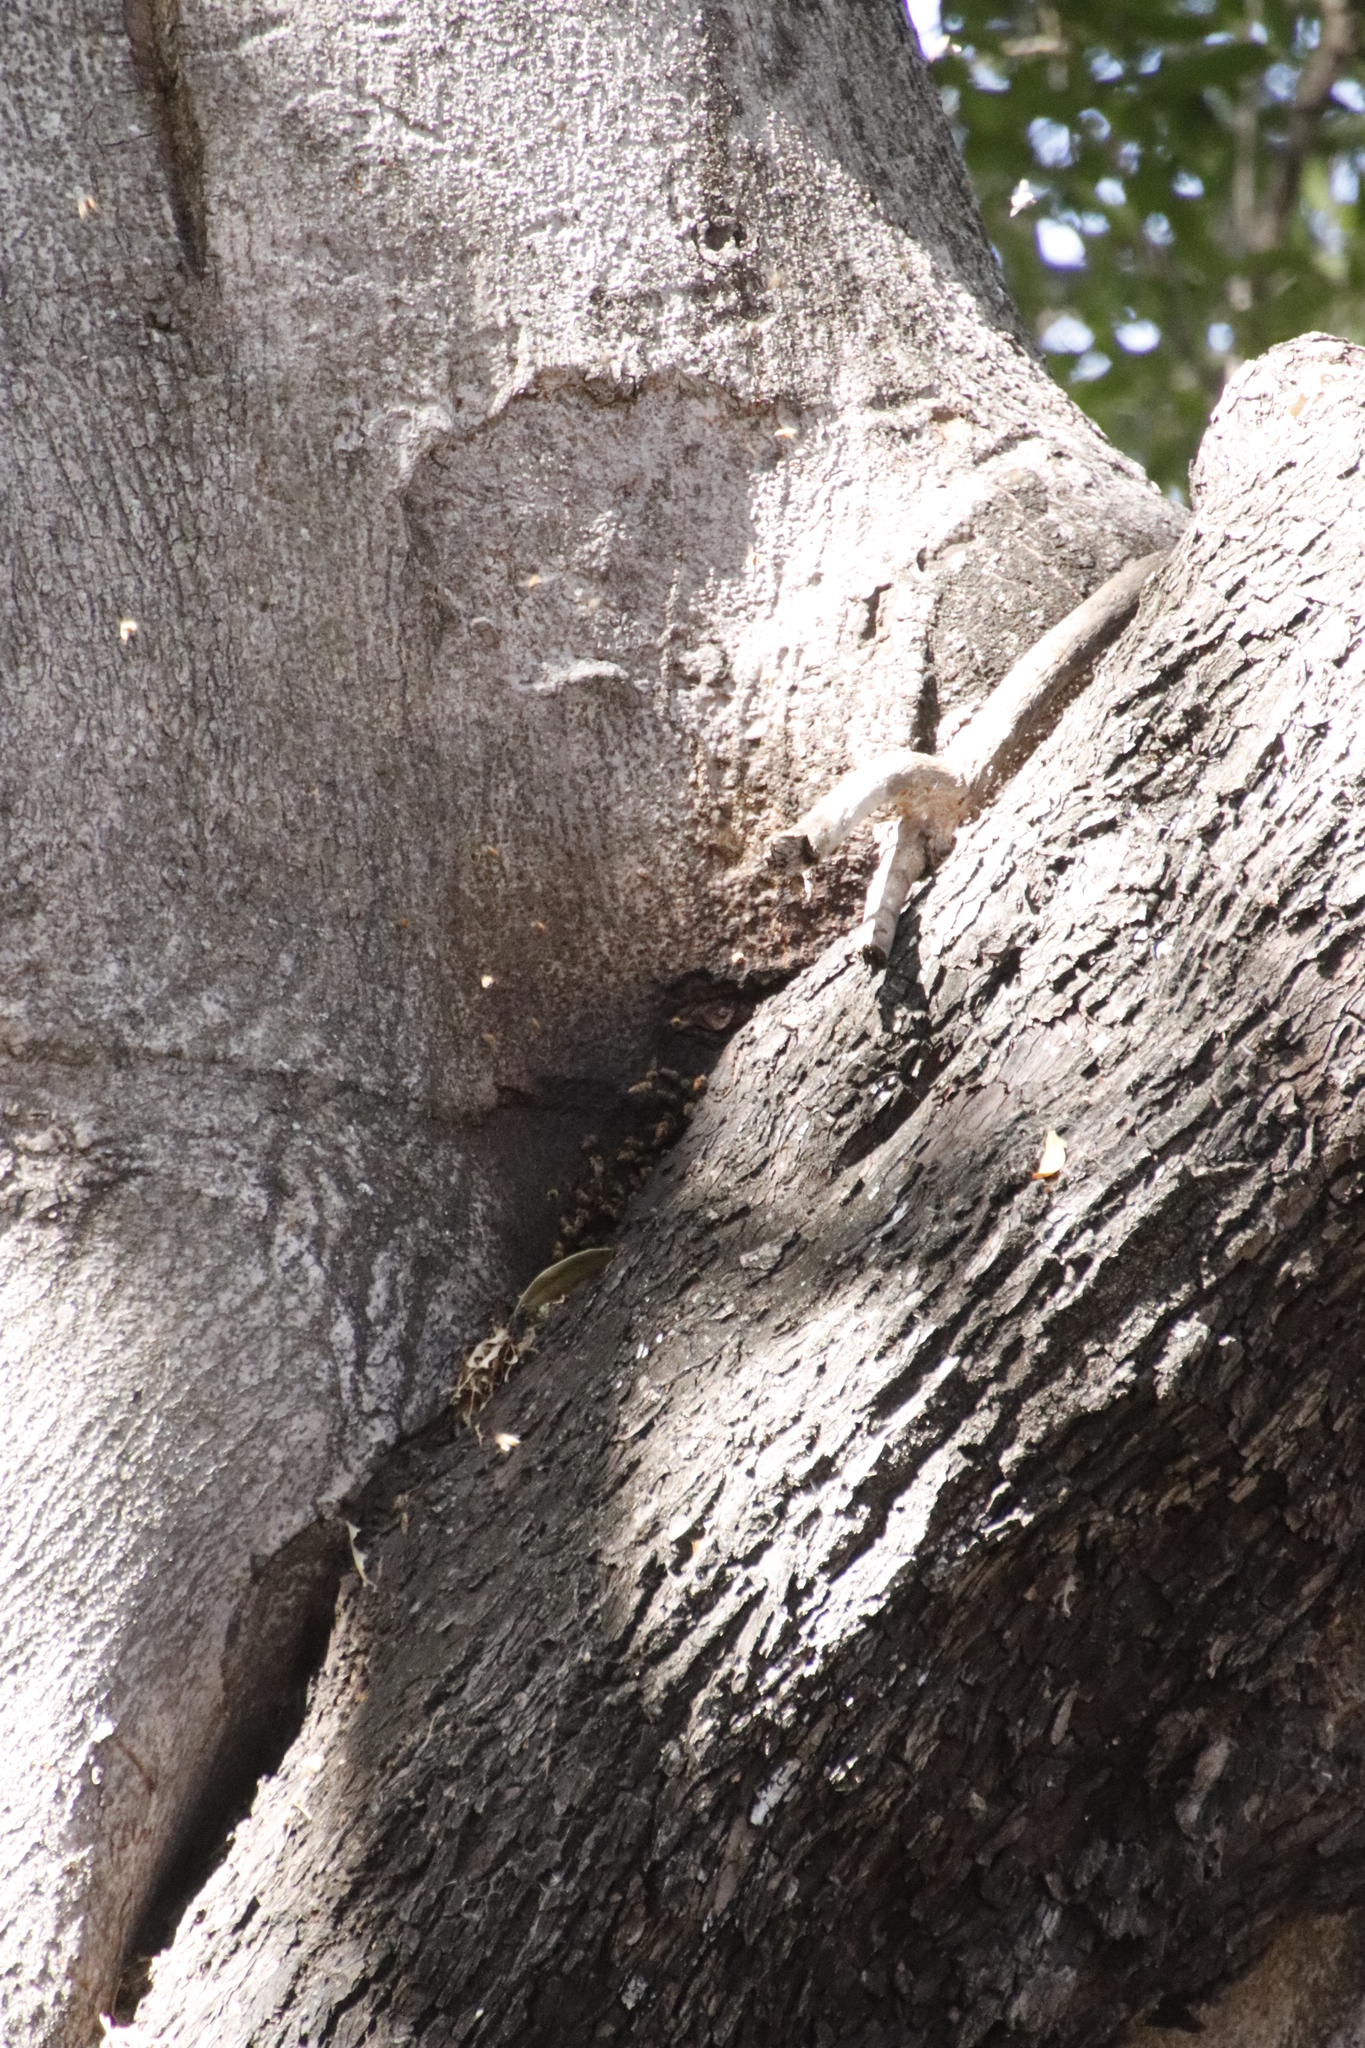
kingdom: Animalia
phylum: Arthropoda
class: Insecta
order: Hymenoptera
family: Apidae
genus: Apis
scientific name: Apis mellifera
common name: Honey bee
